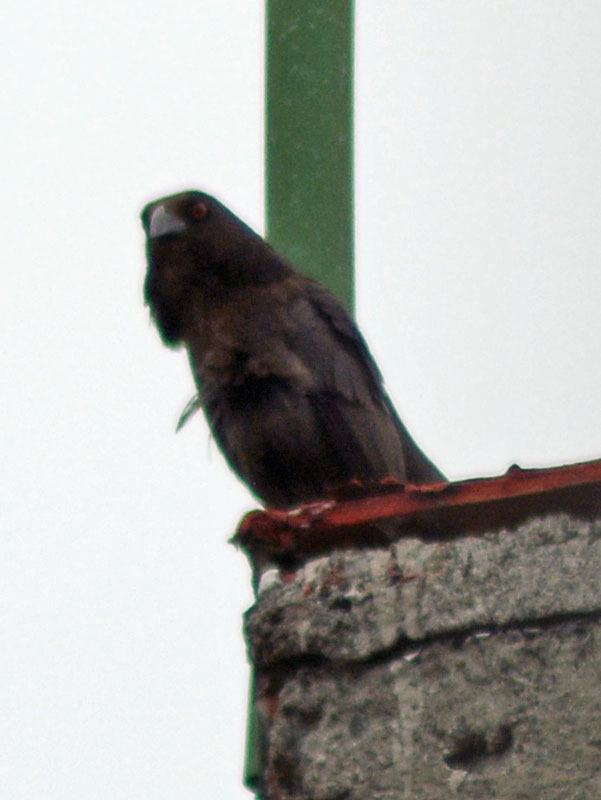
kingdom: Animalia
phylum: Chordata
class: Aves
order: Passeriformes
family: Icteridae
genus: Molothrus
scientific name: Molothrus aeneus
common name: Bronzed cowbird
